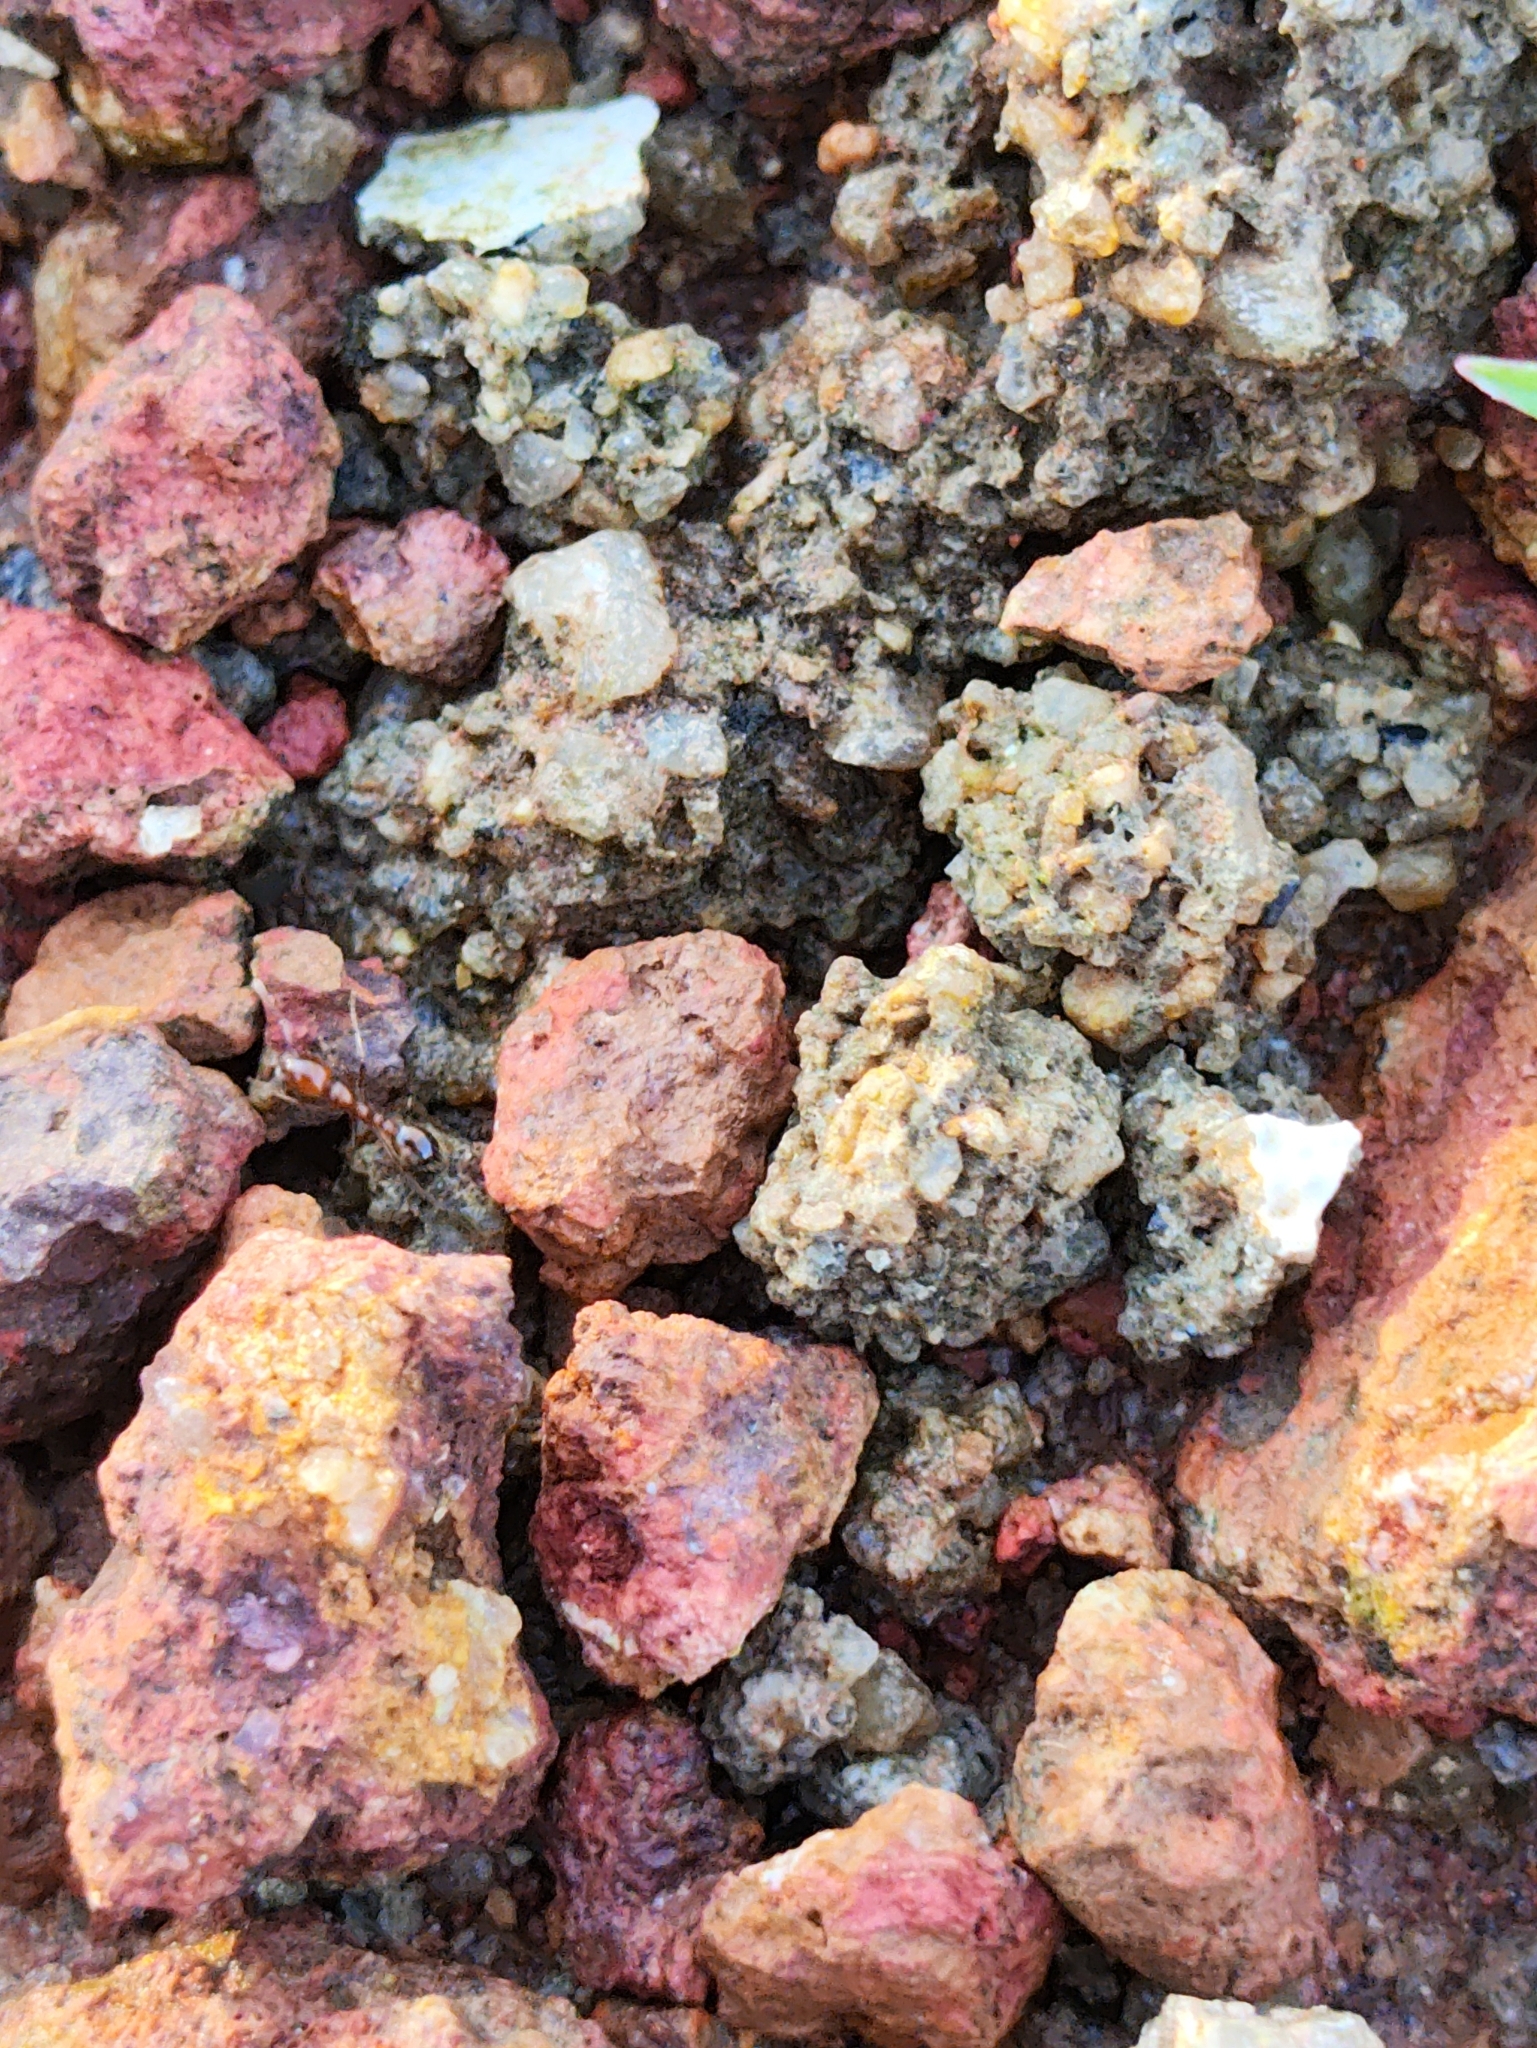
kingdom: Animalia
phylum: Arthropoda
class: Insecta
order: Hymenoptera
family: Formicidae
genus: Solenopsis
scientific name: Solenopsis geminata
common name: Tropical fire ant
